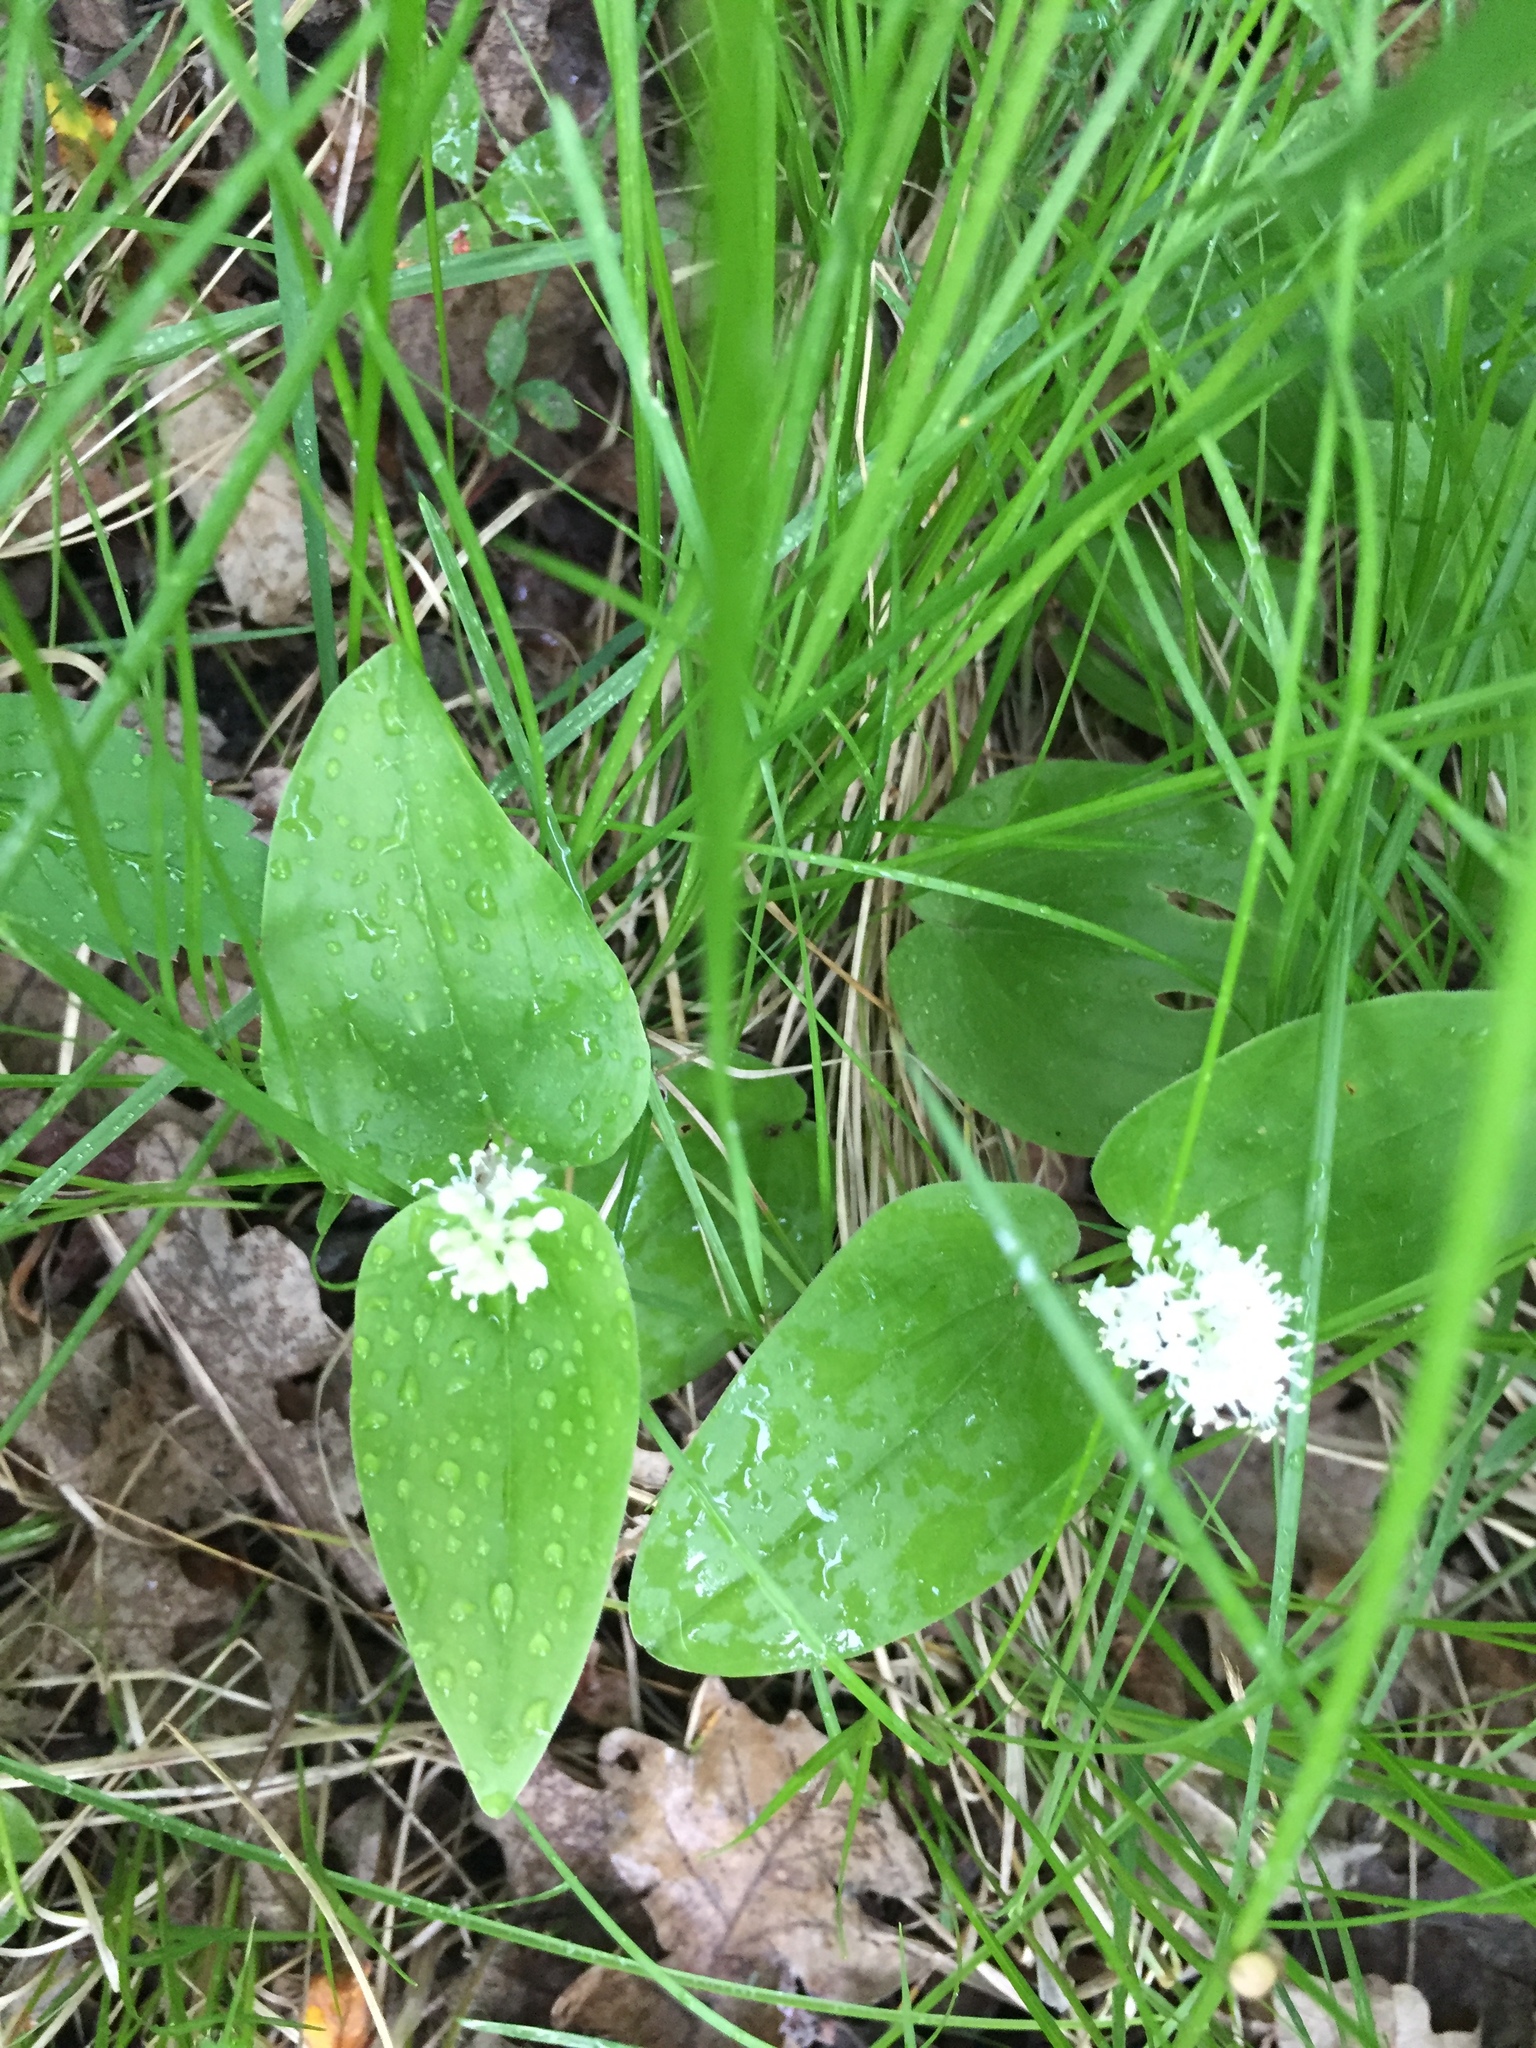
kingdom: Plantae
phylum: Tracheophyta
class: Liliopsida
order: Asparagales
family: Asparagaceae
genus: Maianthemum
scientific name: Maianthemum canadense
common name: False lily-of-the-valley
